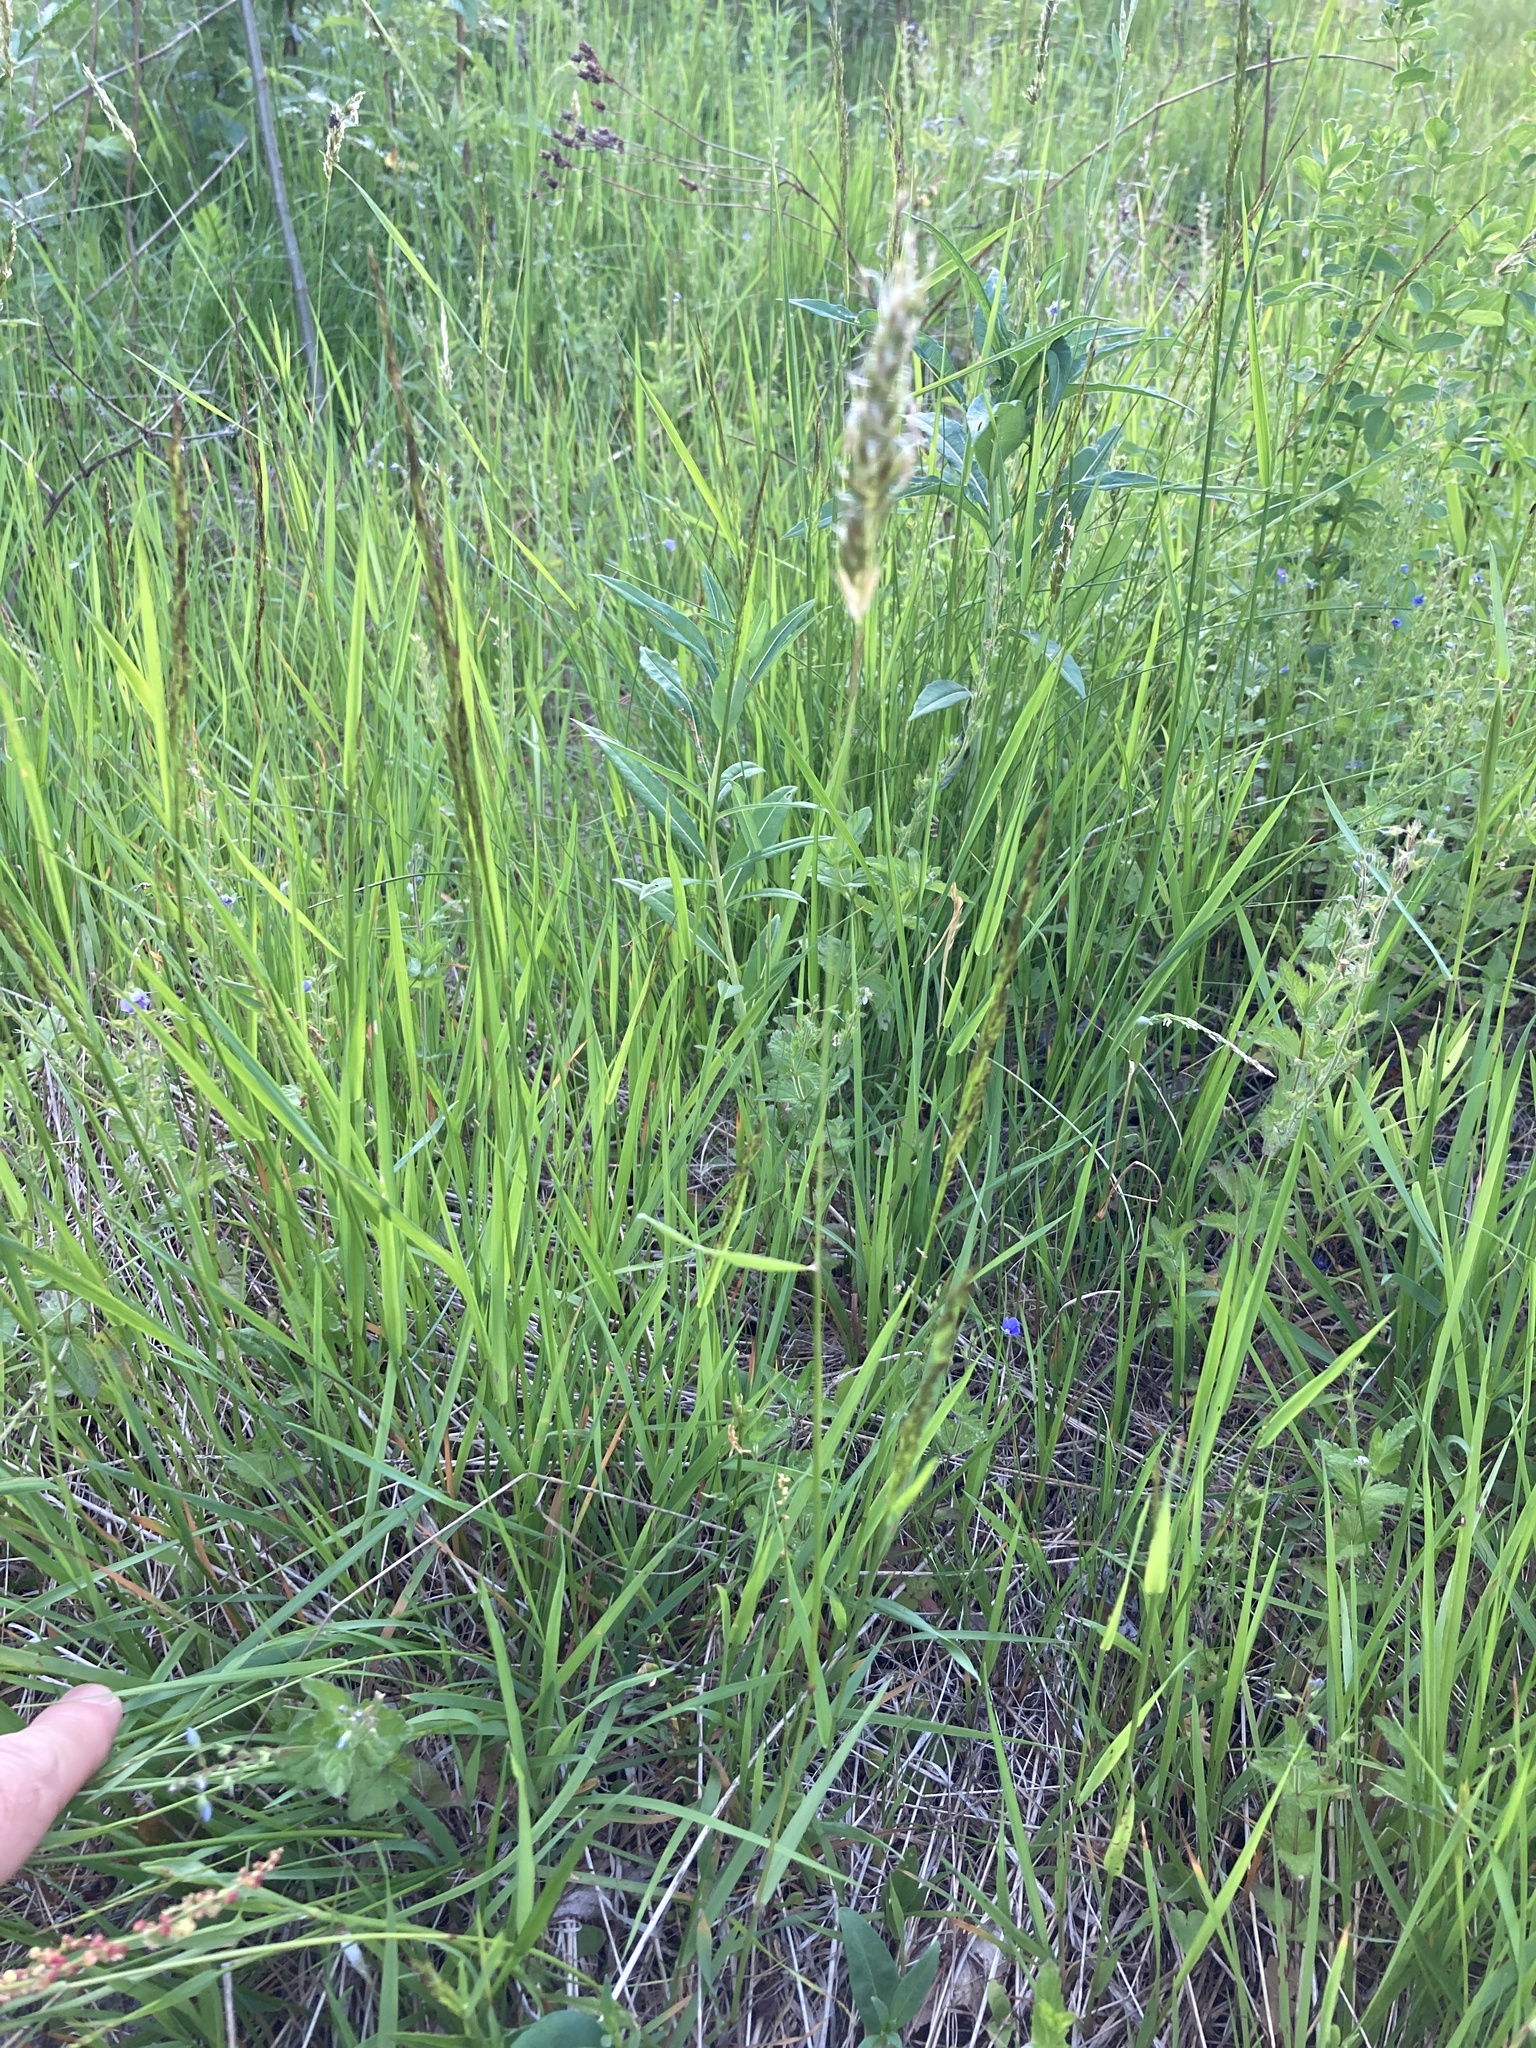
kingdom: Plantae
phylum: Tracheophyta
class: Liliopsida
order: Poales
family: Poaceae
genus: Anthoxanthum
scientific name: Anthoxanthum odoratum
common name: Sweet vernalgrass
